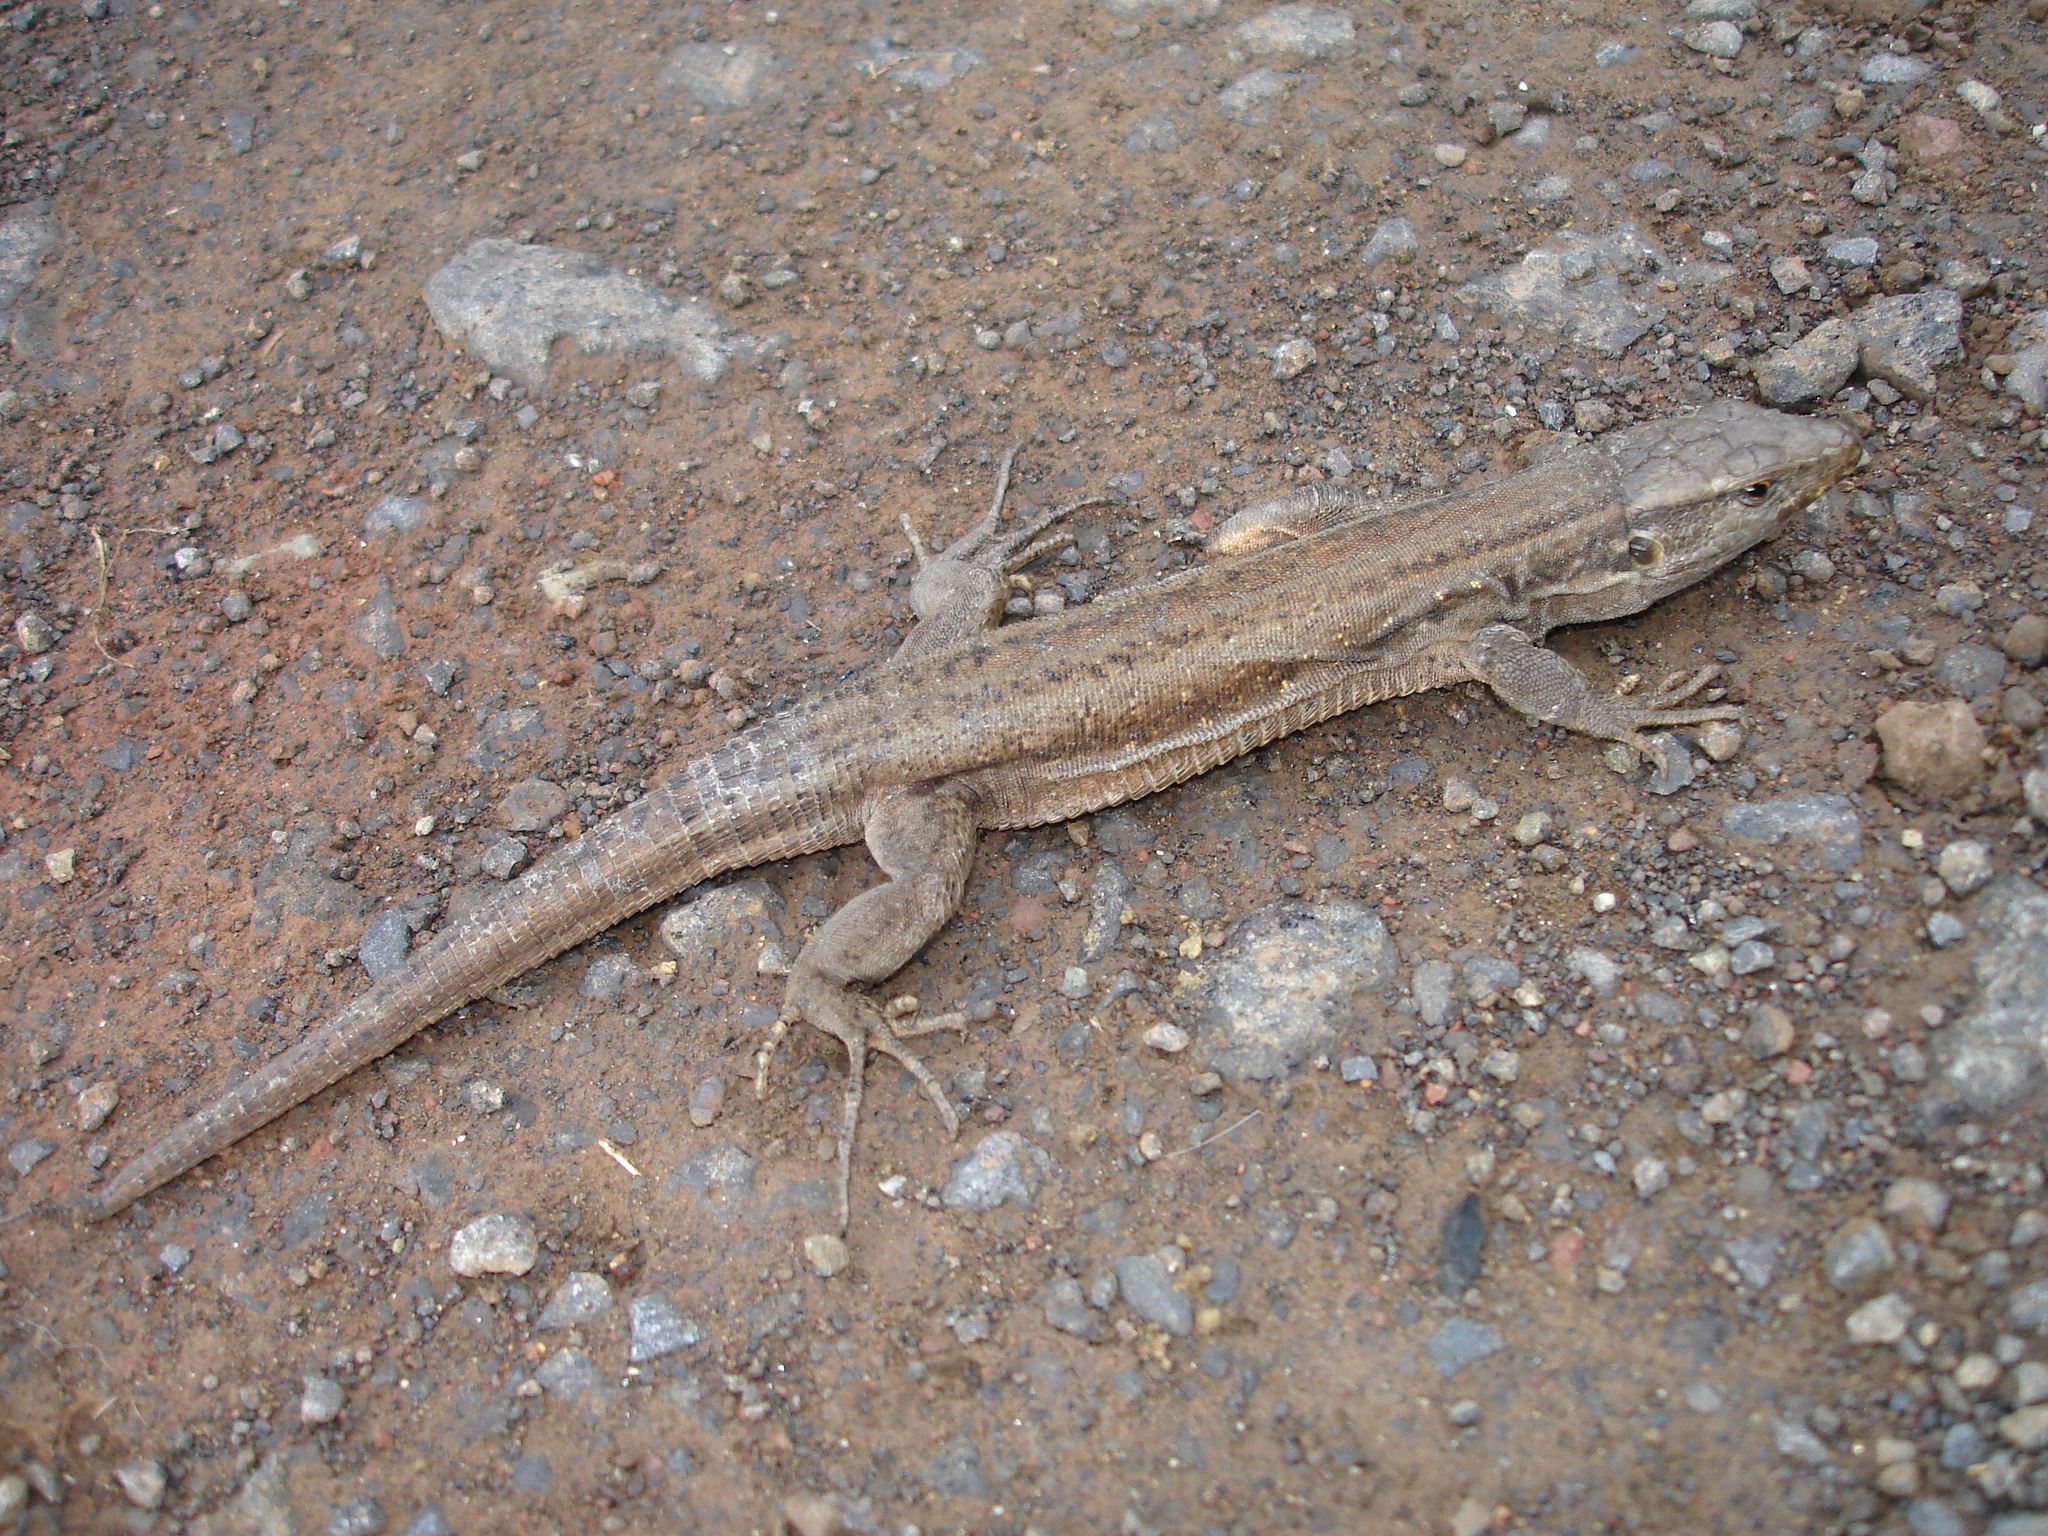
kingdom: Animalia
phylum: Chordata
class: Squamata
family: Lacertidae
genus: Gallotia
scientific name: Gallotia galloti
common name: Gallot's lizard
